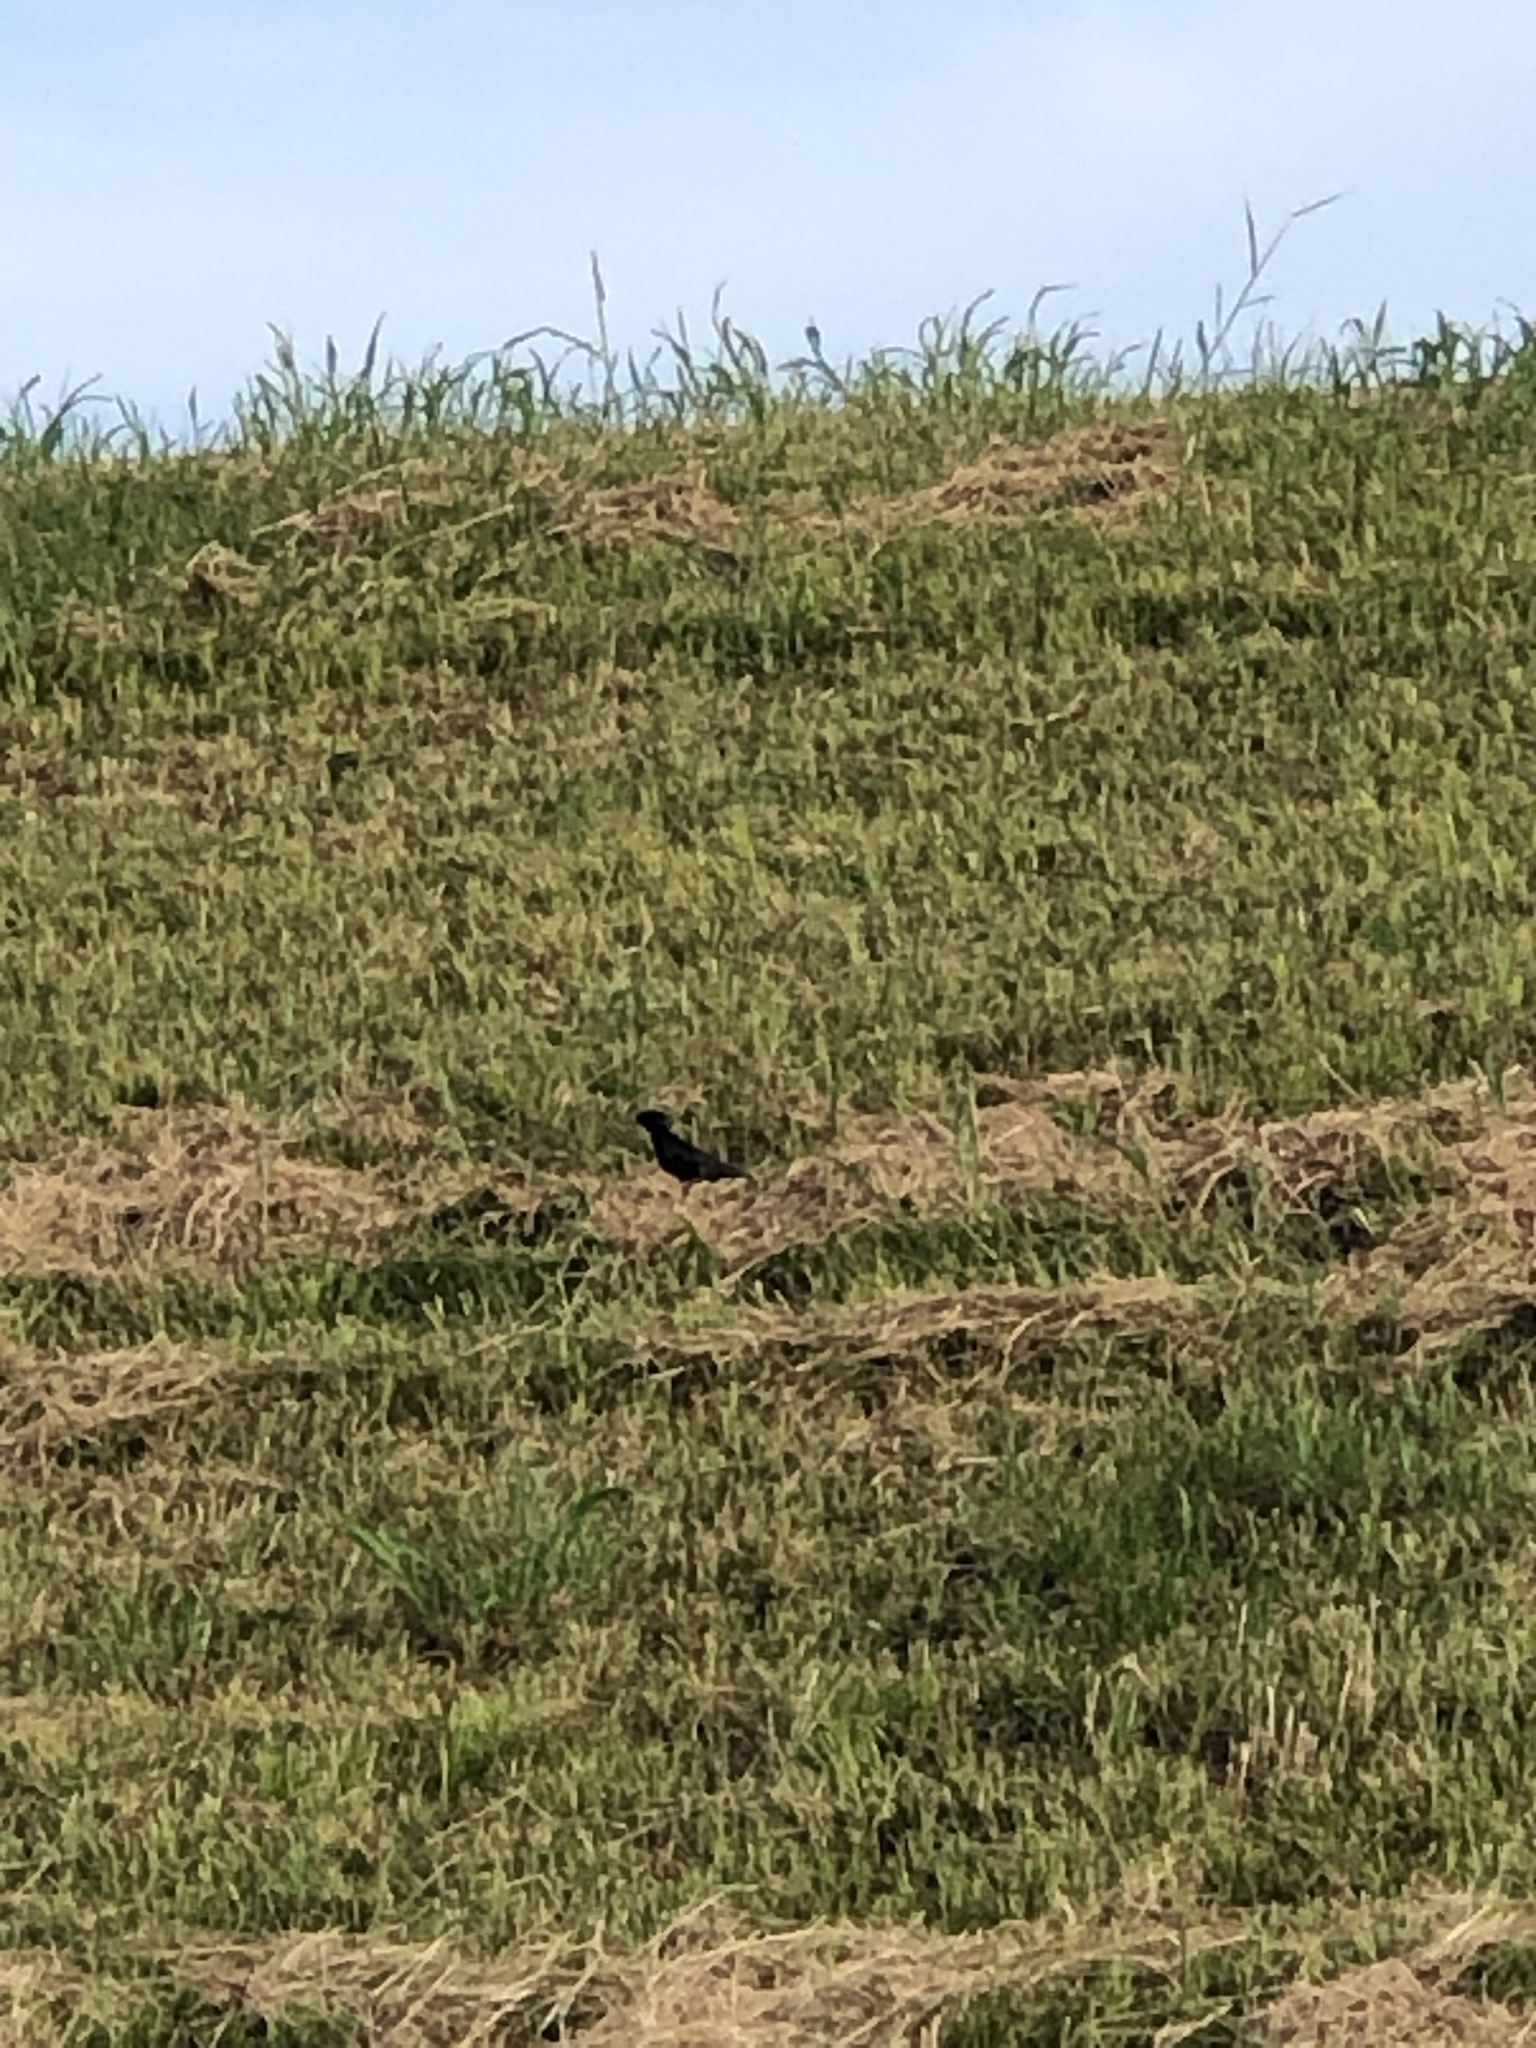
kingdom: Animalia
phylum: Chordata
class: Aves
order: Passeriformes
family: Sturnidae
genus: Sturnus
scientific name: Sturnus vulgaris
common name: Common starling
